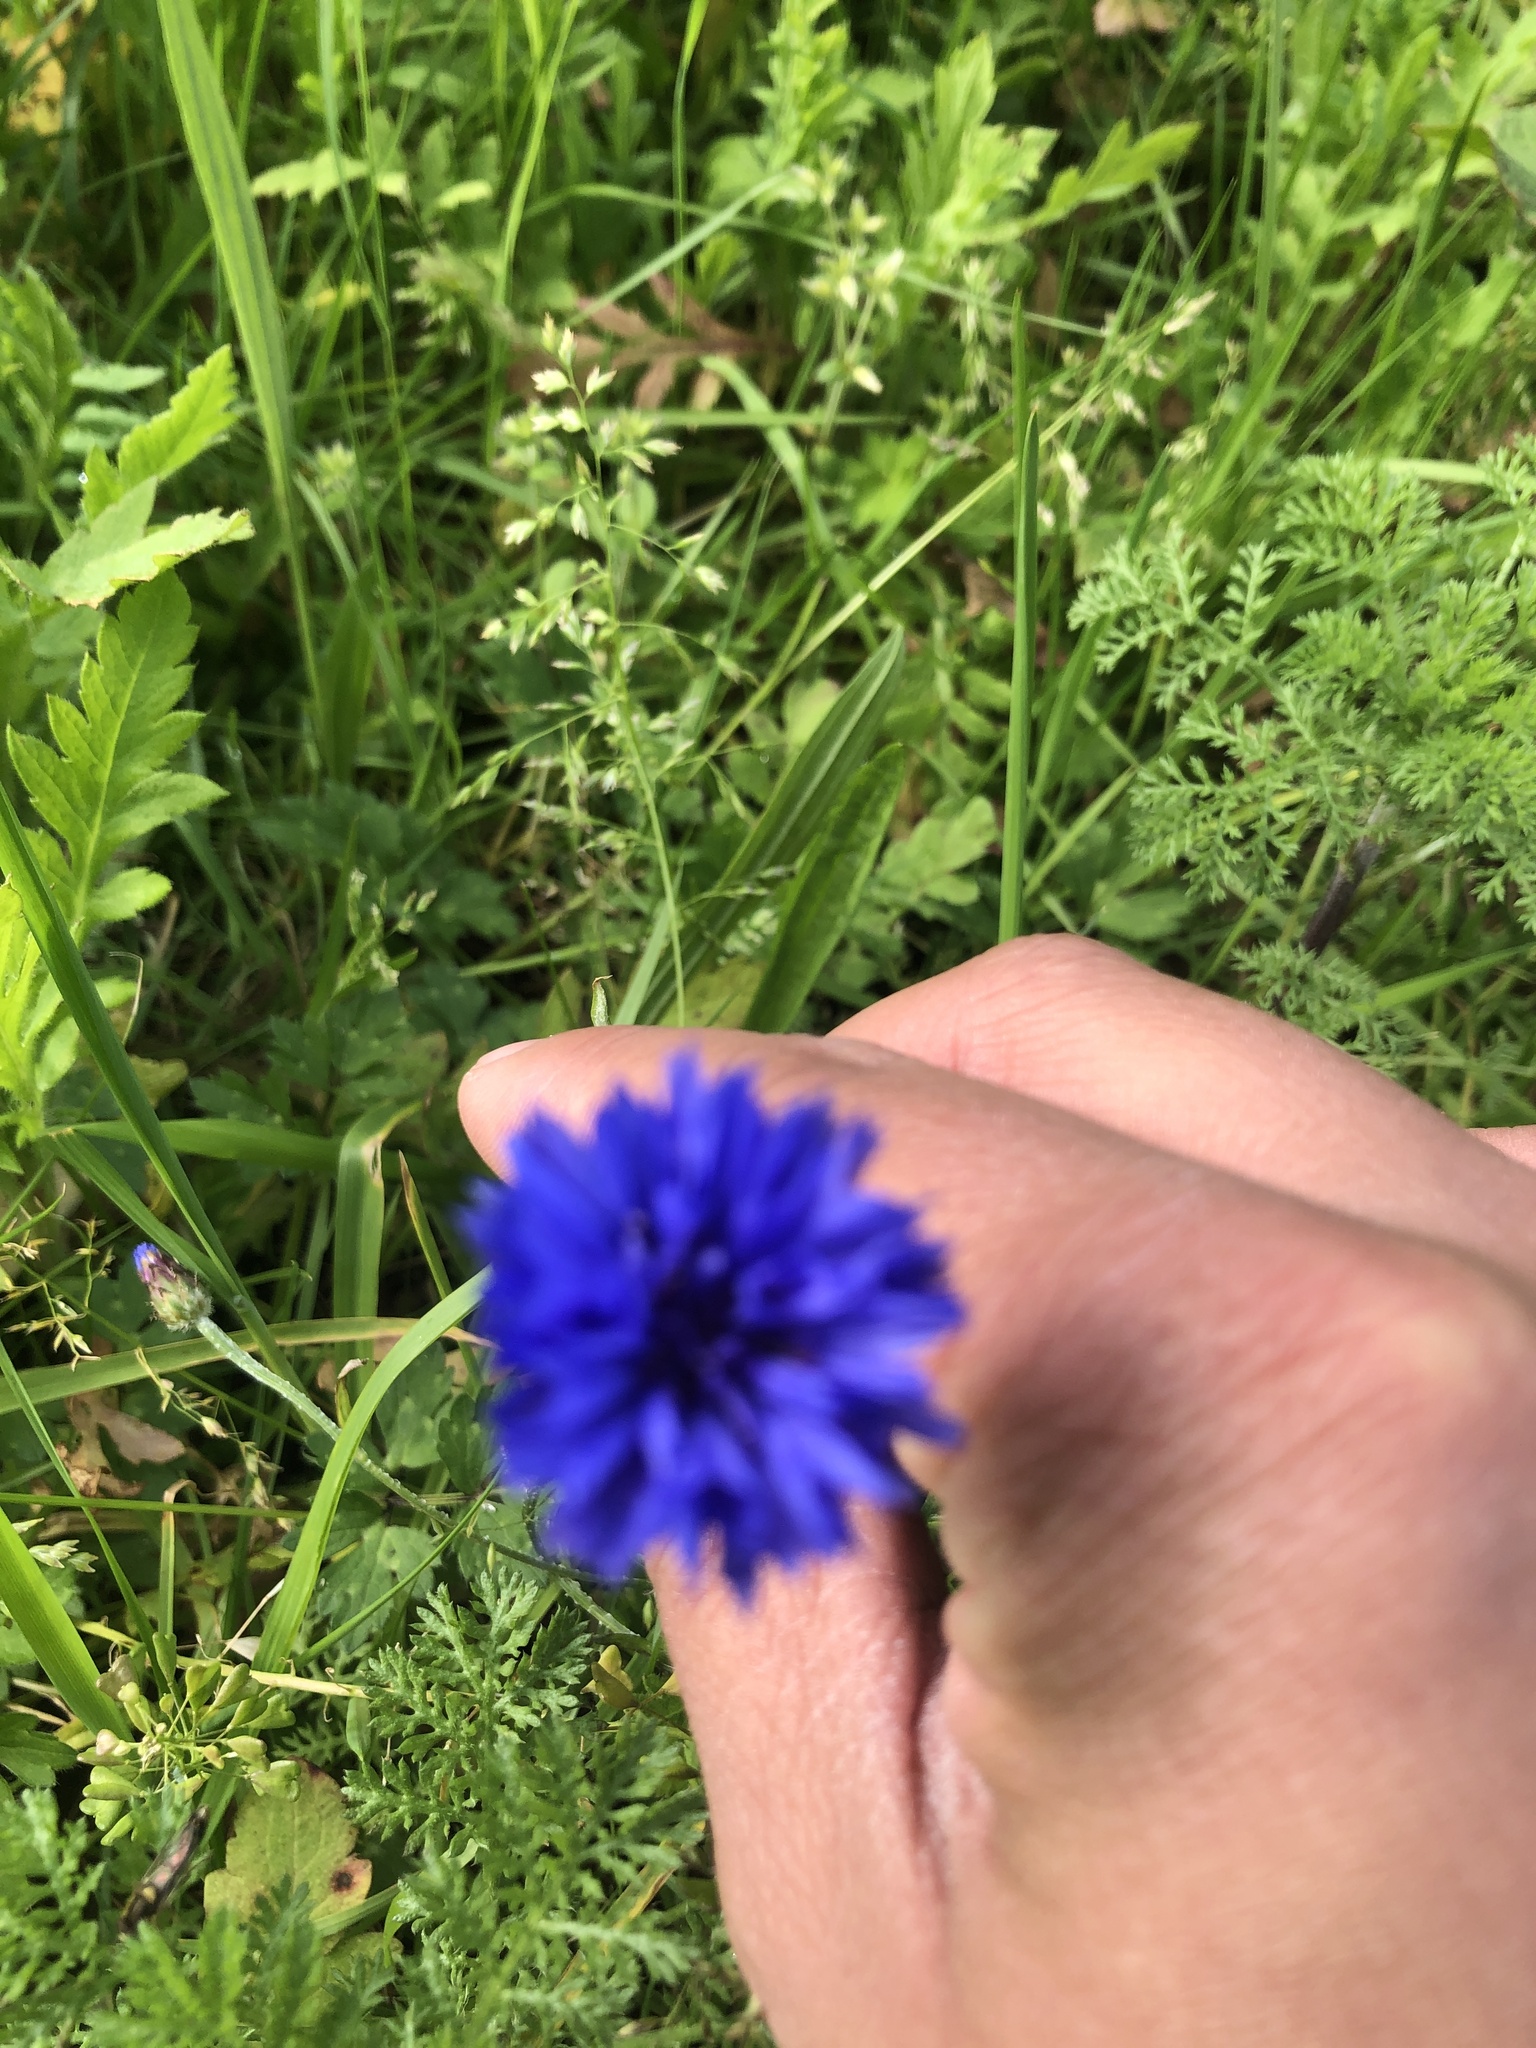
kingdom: Plantae
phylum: Tracheophyta
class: Magnoliopsida
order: Asterales
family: Asteraceae
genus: Centaurea
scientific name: Centaurea cyanus
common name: Cornflower
